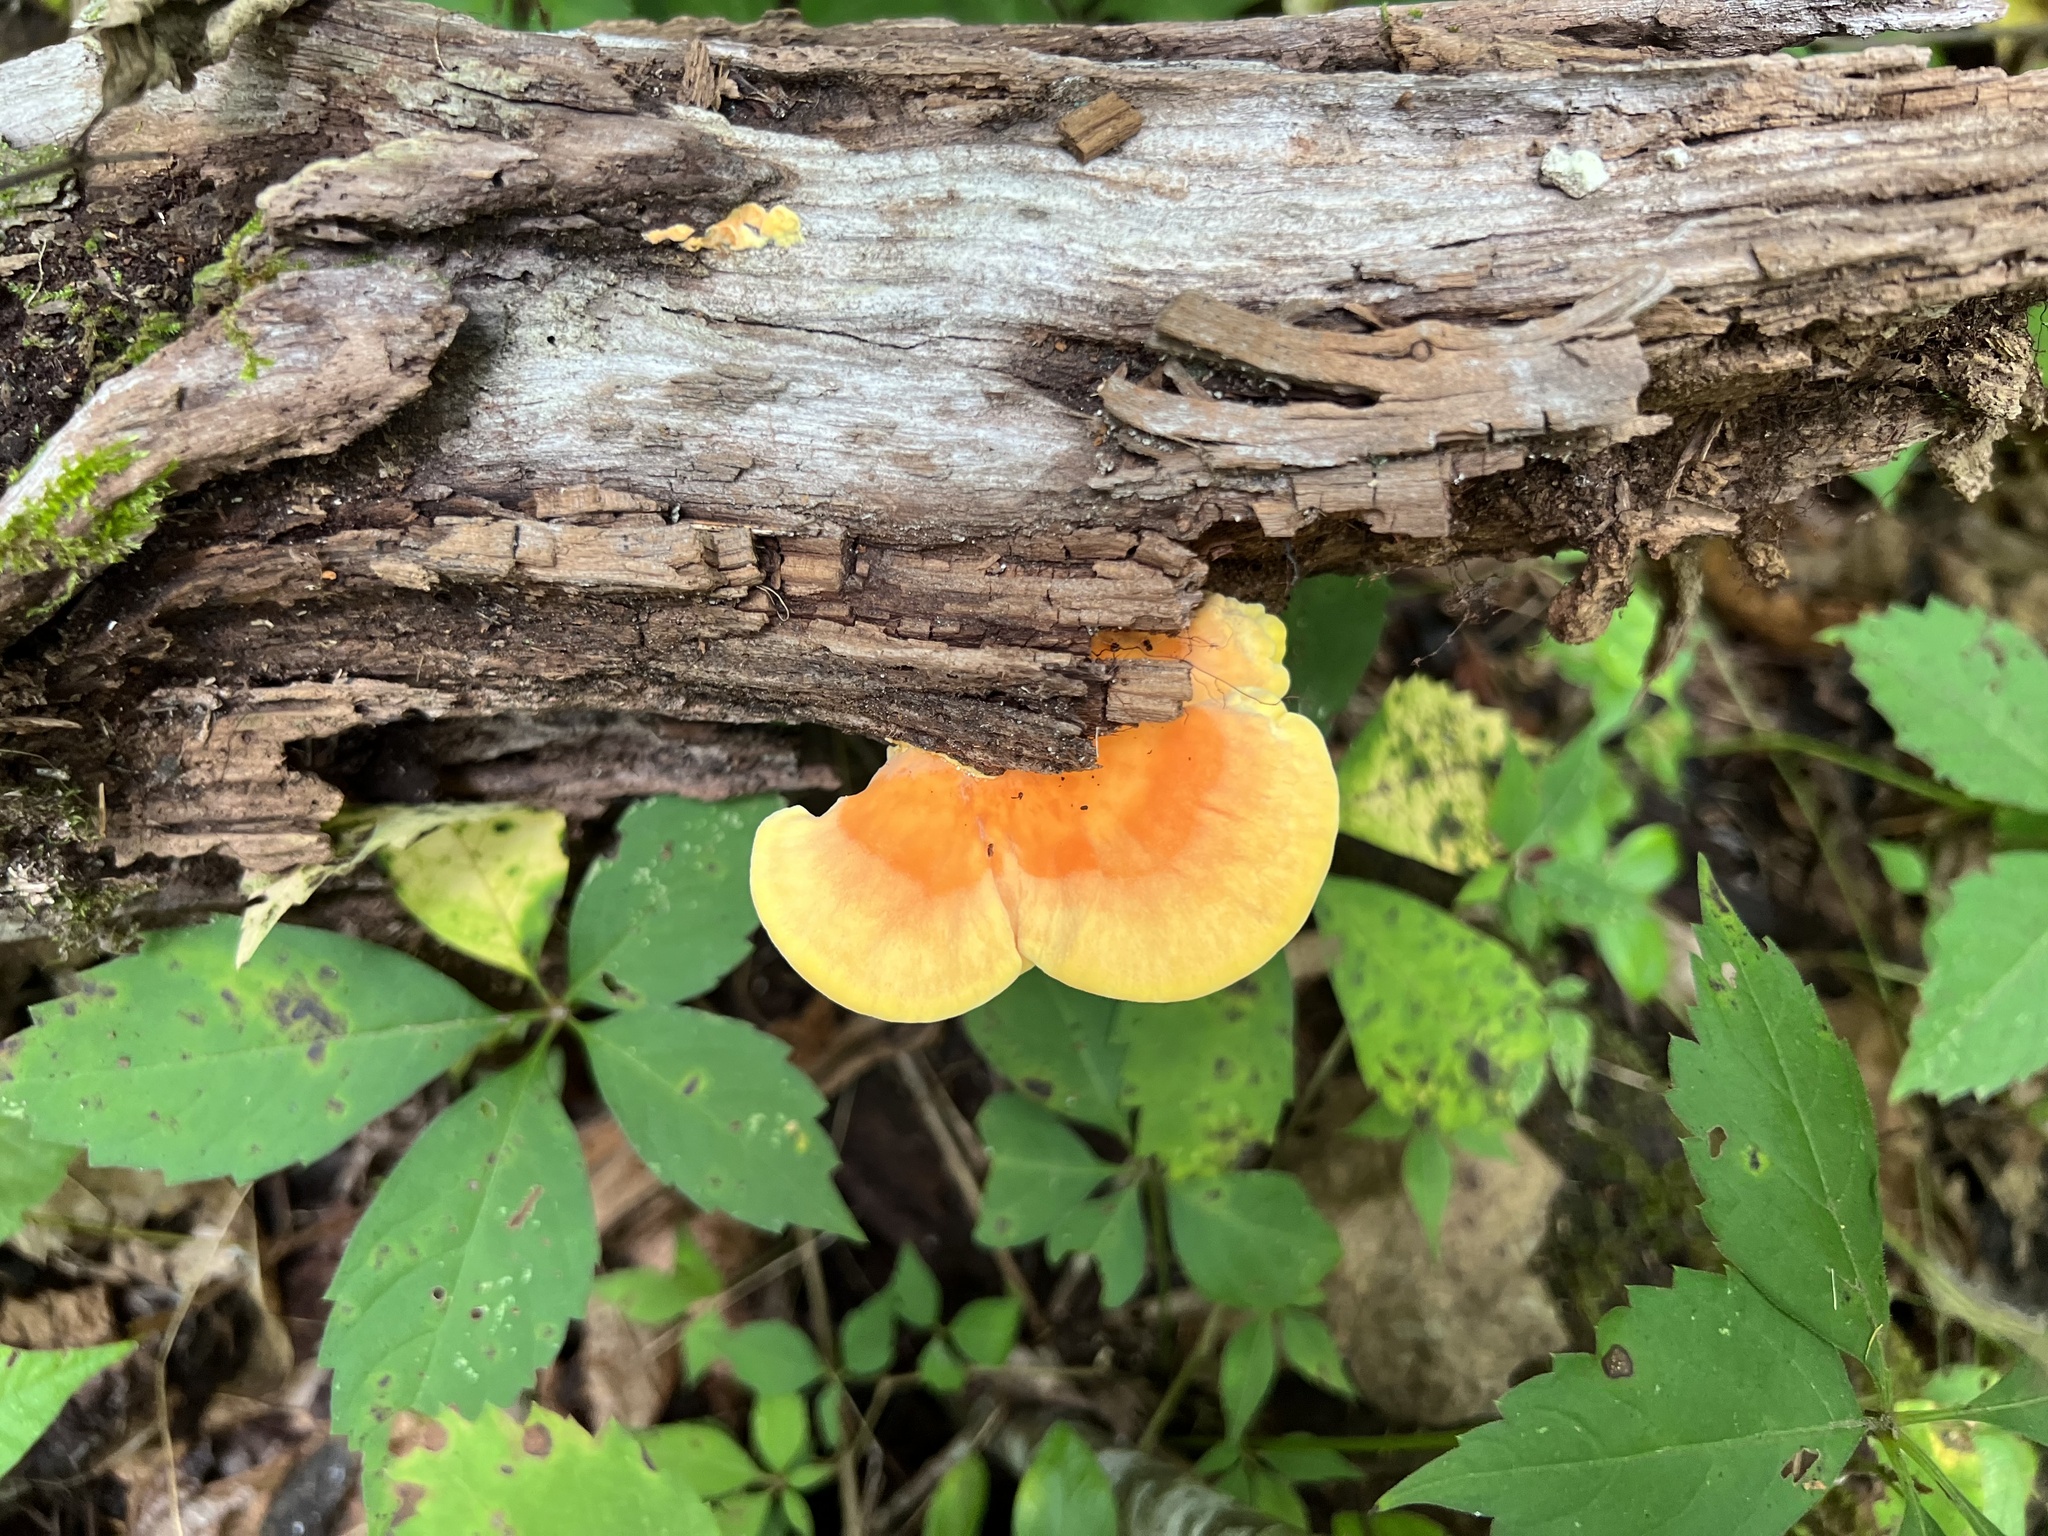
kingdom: Fungi
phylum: Basidiomycota
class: Agaricomycetes
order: Polyporales
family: Laetiporaceae
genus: Laetiporus
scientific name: Laetiporus sulphureus
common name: Chicken of the woods
